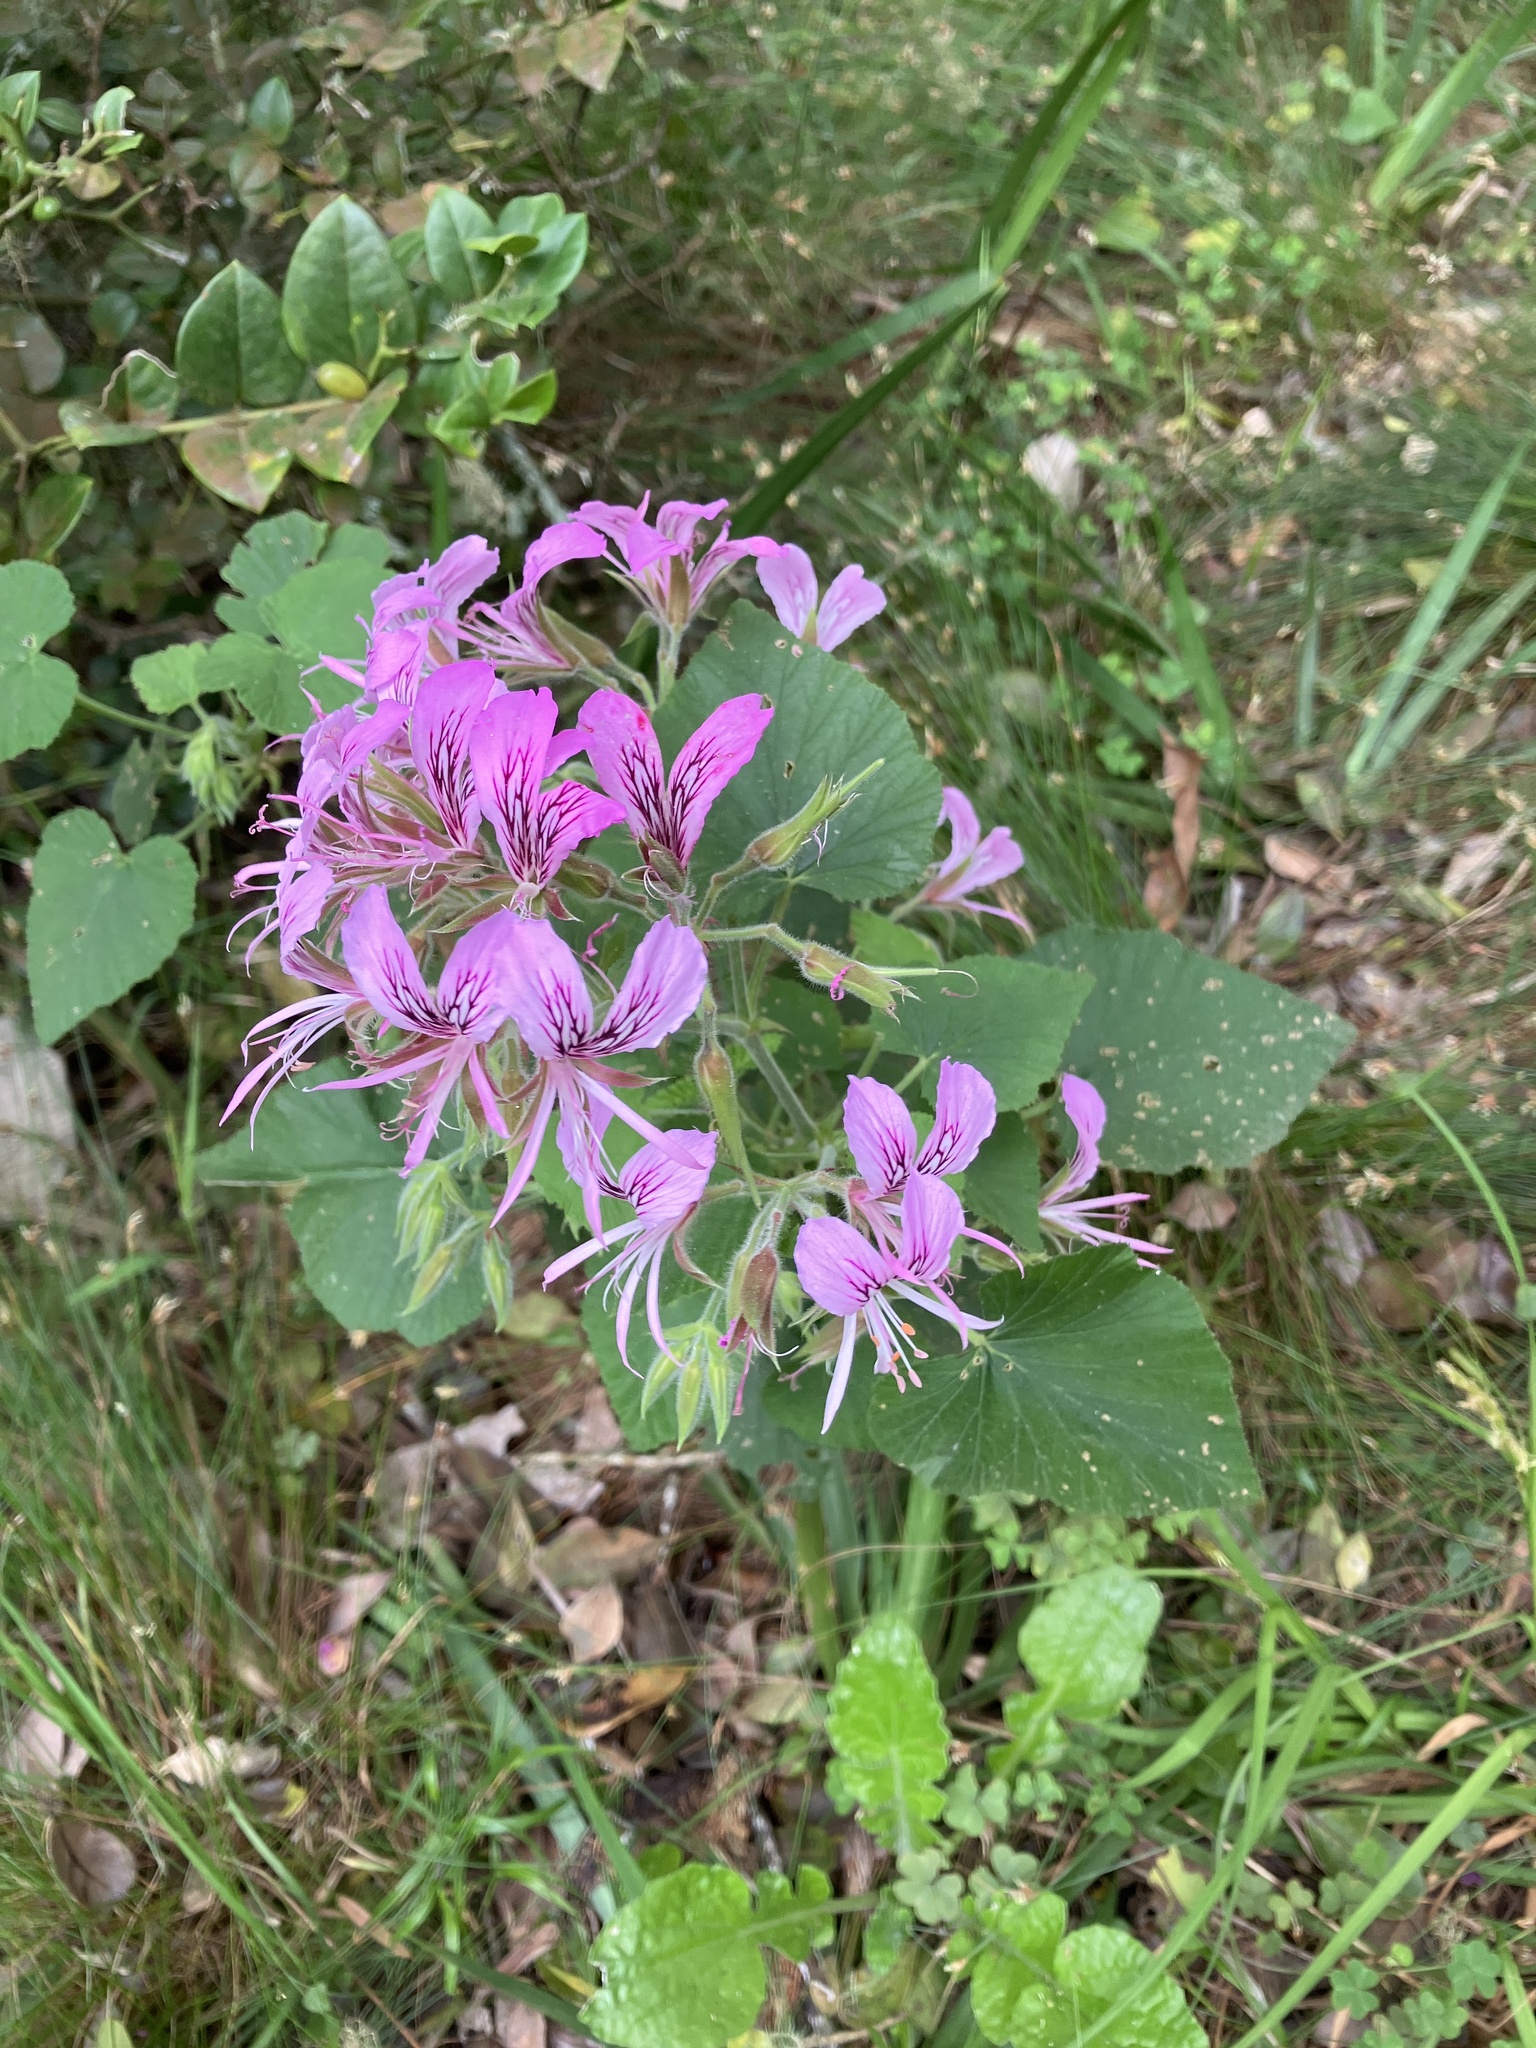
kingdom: Plantae
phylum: Tracheophyta
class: Magnoliopsida
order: Geraniales
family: Geraniaceae
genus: Pelargonium
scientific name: Pelargonium cordifolium
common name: Heart-leaf pelargonium
